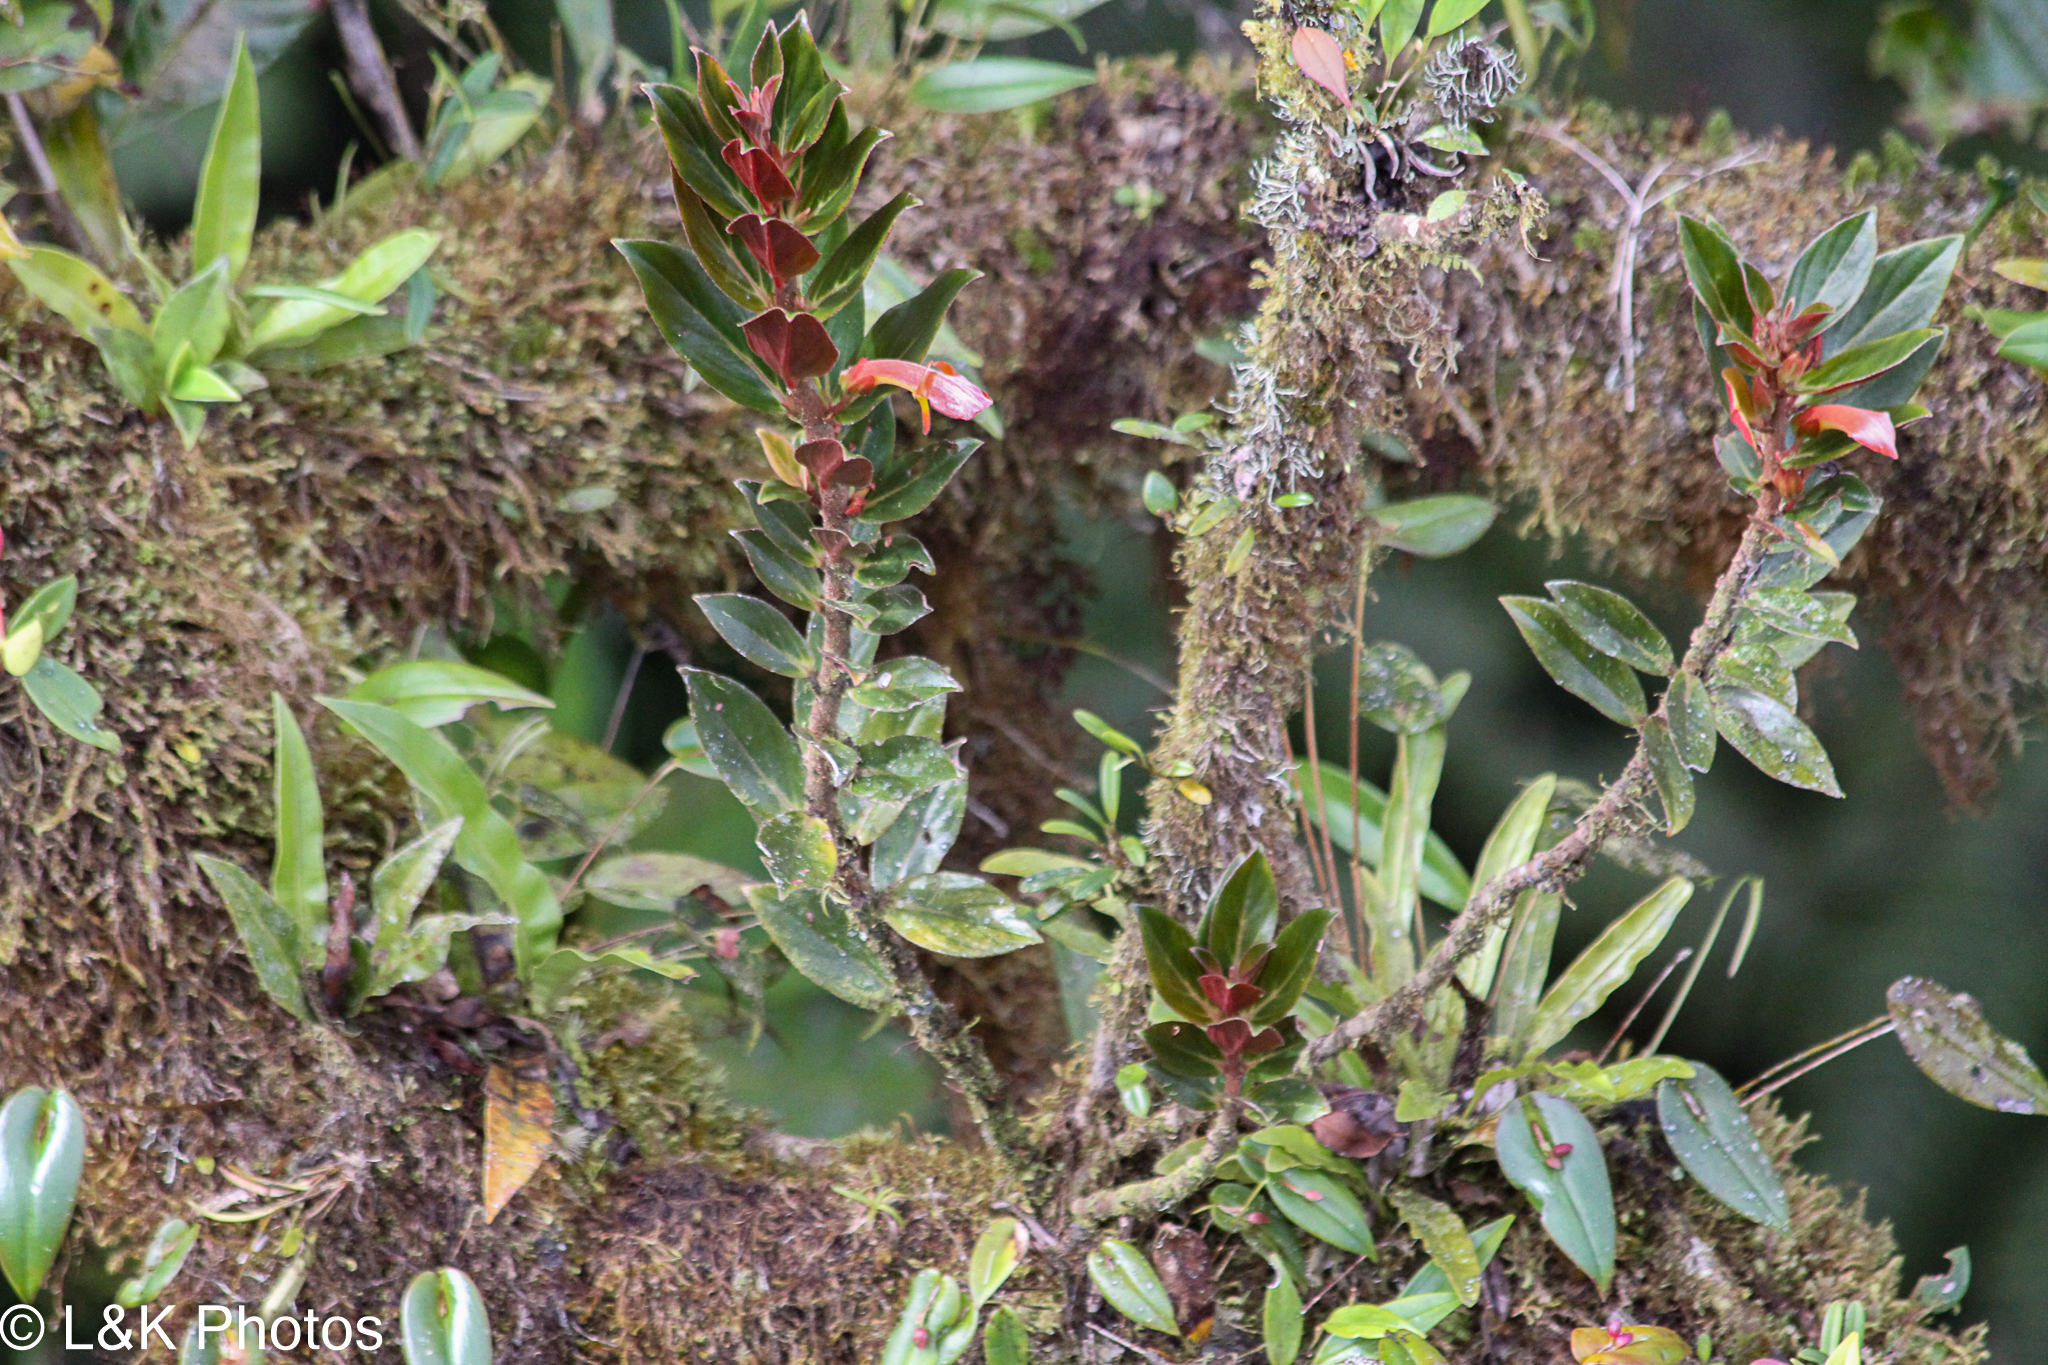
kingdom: Plantae
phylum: Tracheophyta
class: Magnoliopsida
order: Lamiales
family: Gesneriaceae
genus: Columnea
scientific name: Columnea lepidocaula
